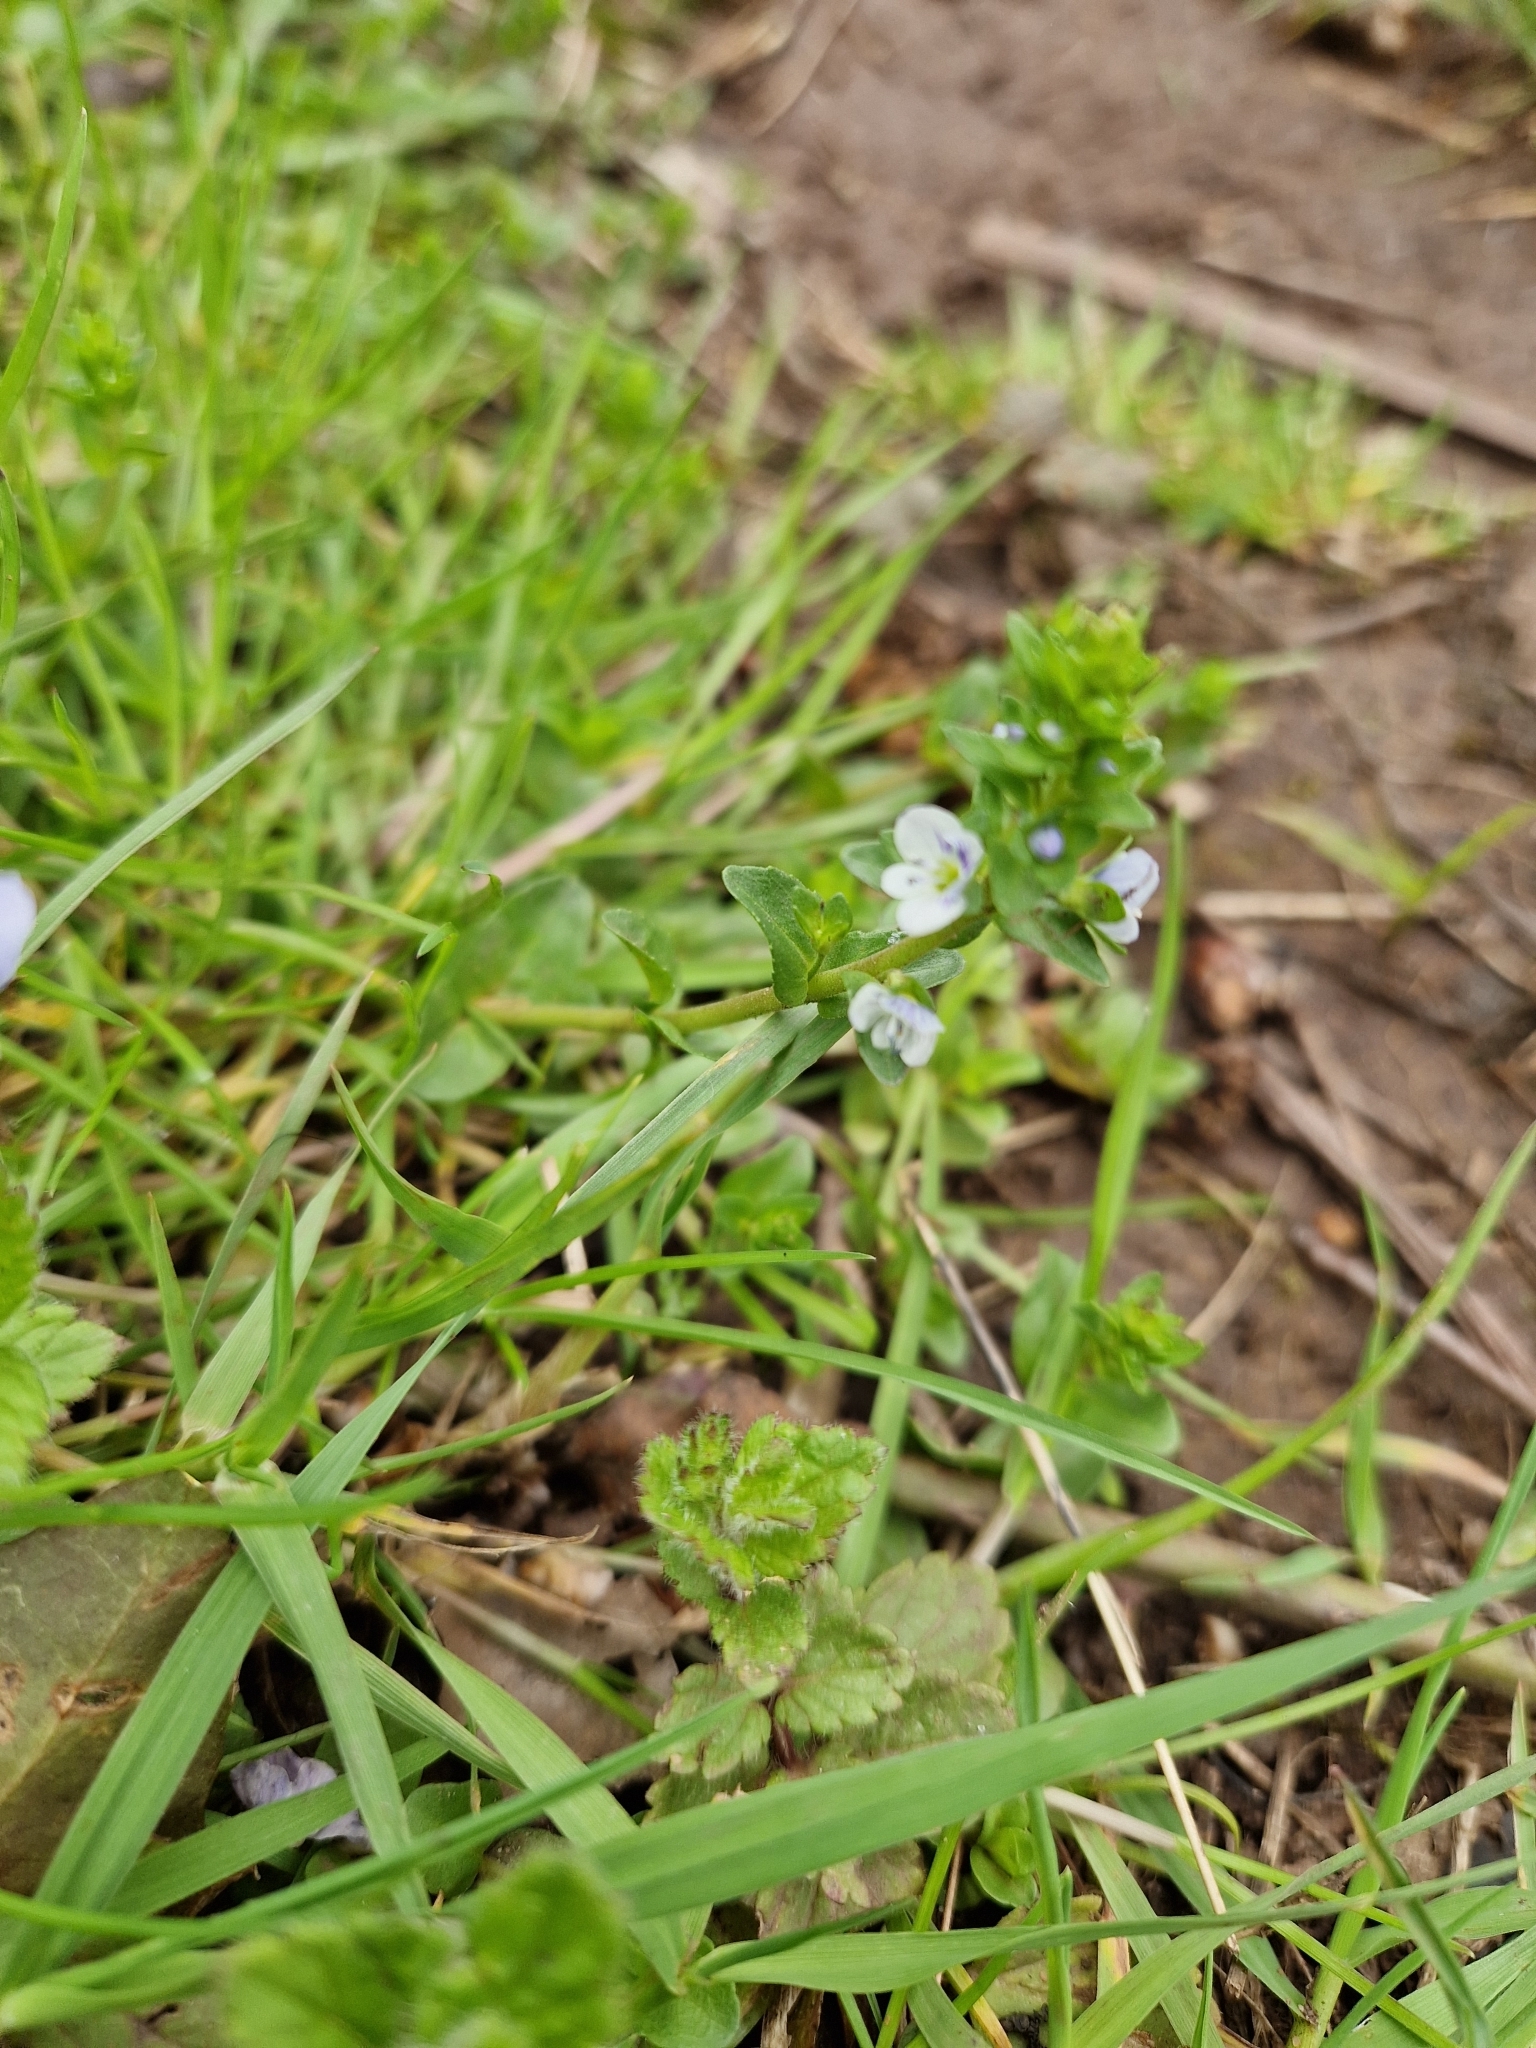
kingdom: Plantae
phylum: Tracheophyta
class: Magnoliopsida
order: Lamiales
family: Plantaginaceae
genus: Veronica
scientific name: Veronica serpyllifolia
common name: Thyme-leaved speedwell
